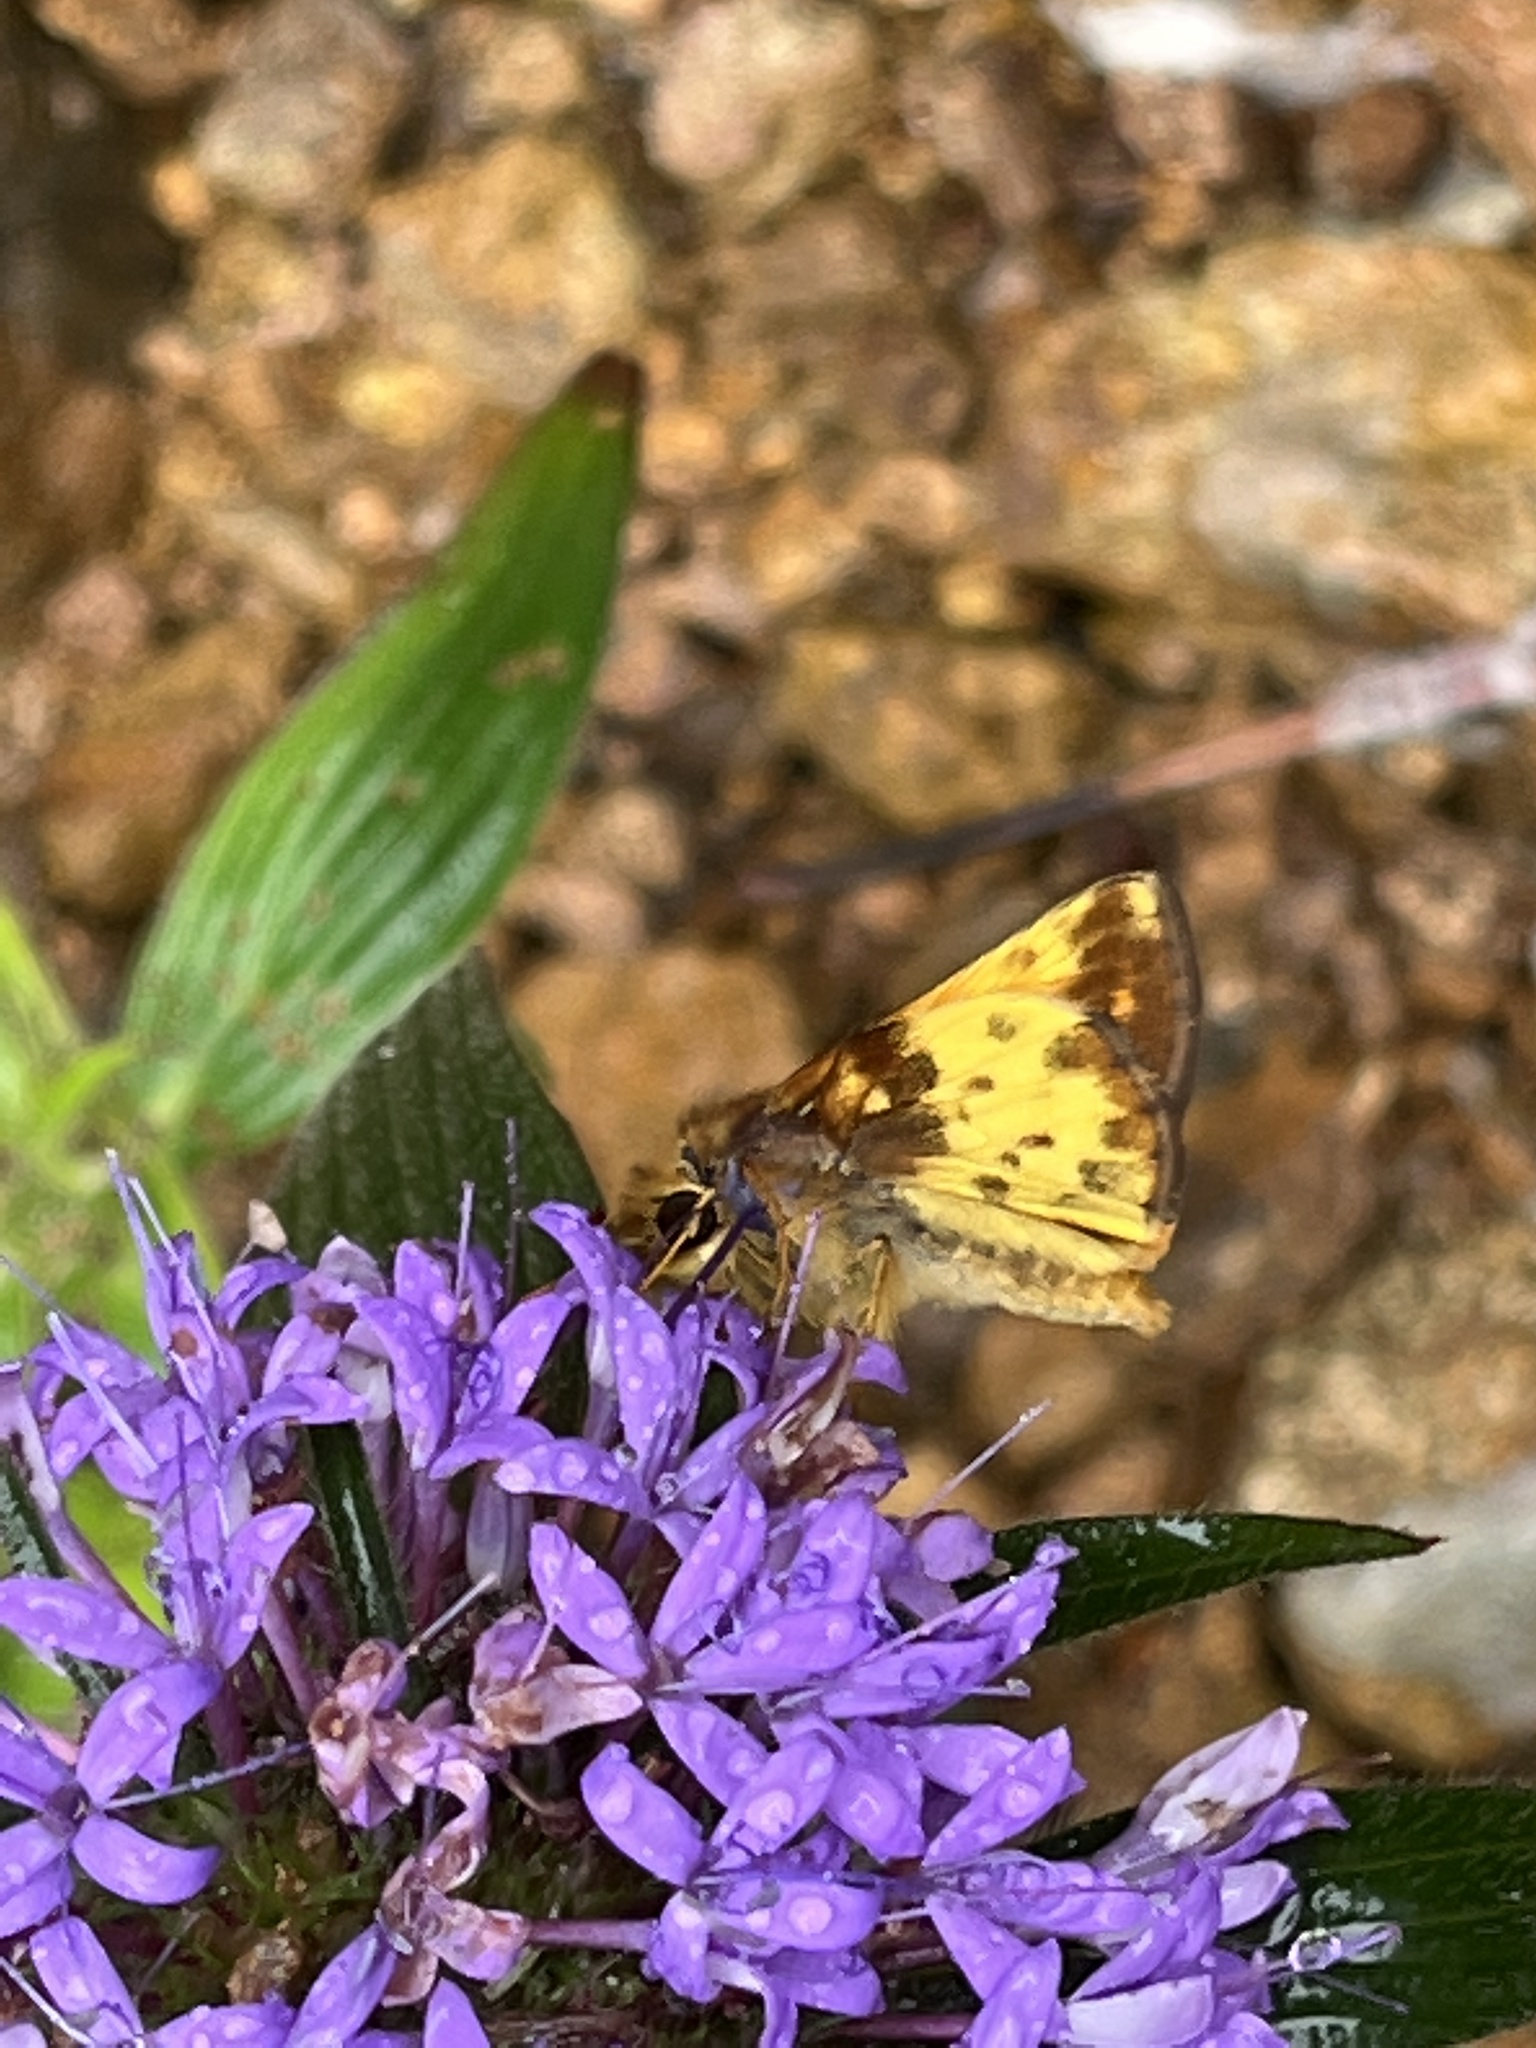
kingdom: Animalia
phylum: Arthropoda
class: Insecta
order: Lepidoptera
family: Hesperiidae
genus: Lon
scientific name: Lon zabulon
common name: Zabulon skipper
